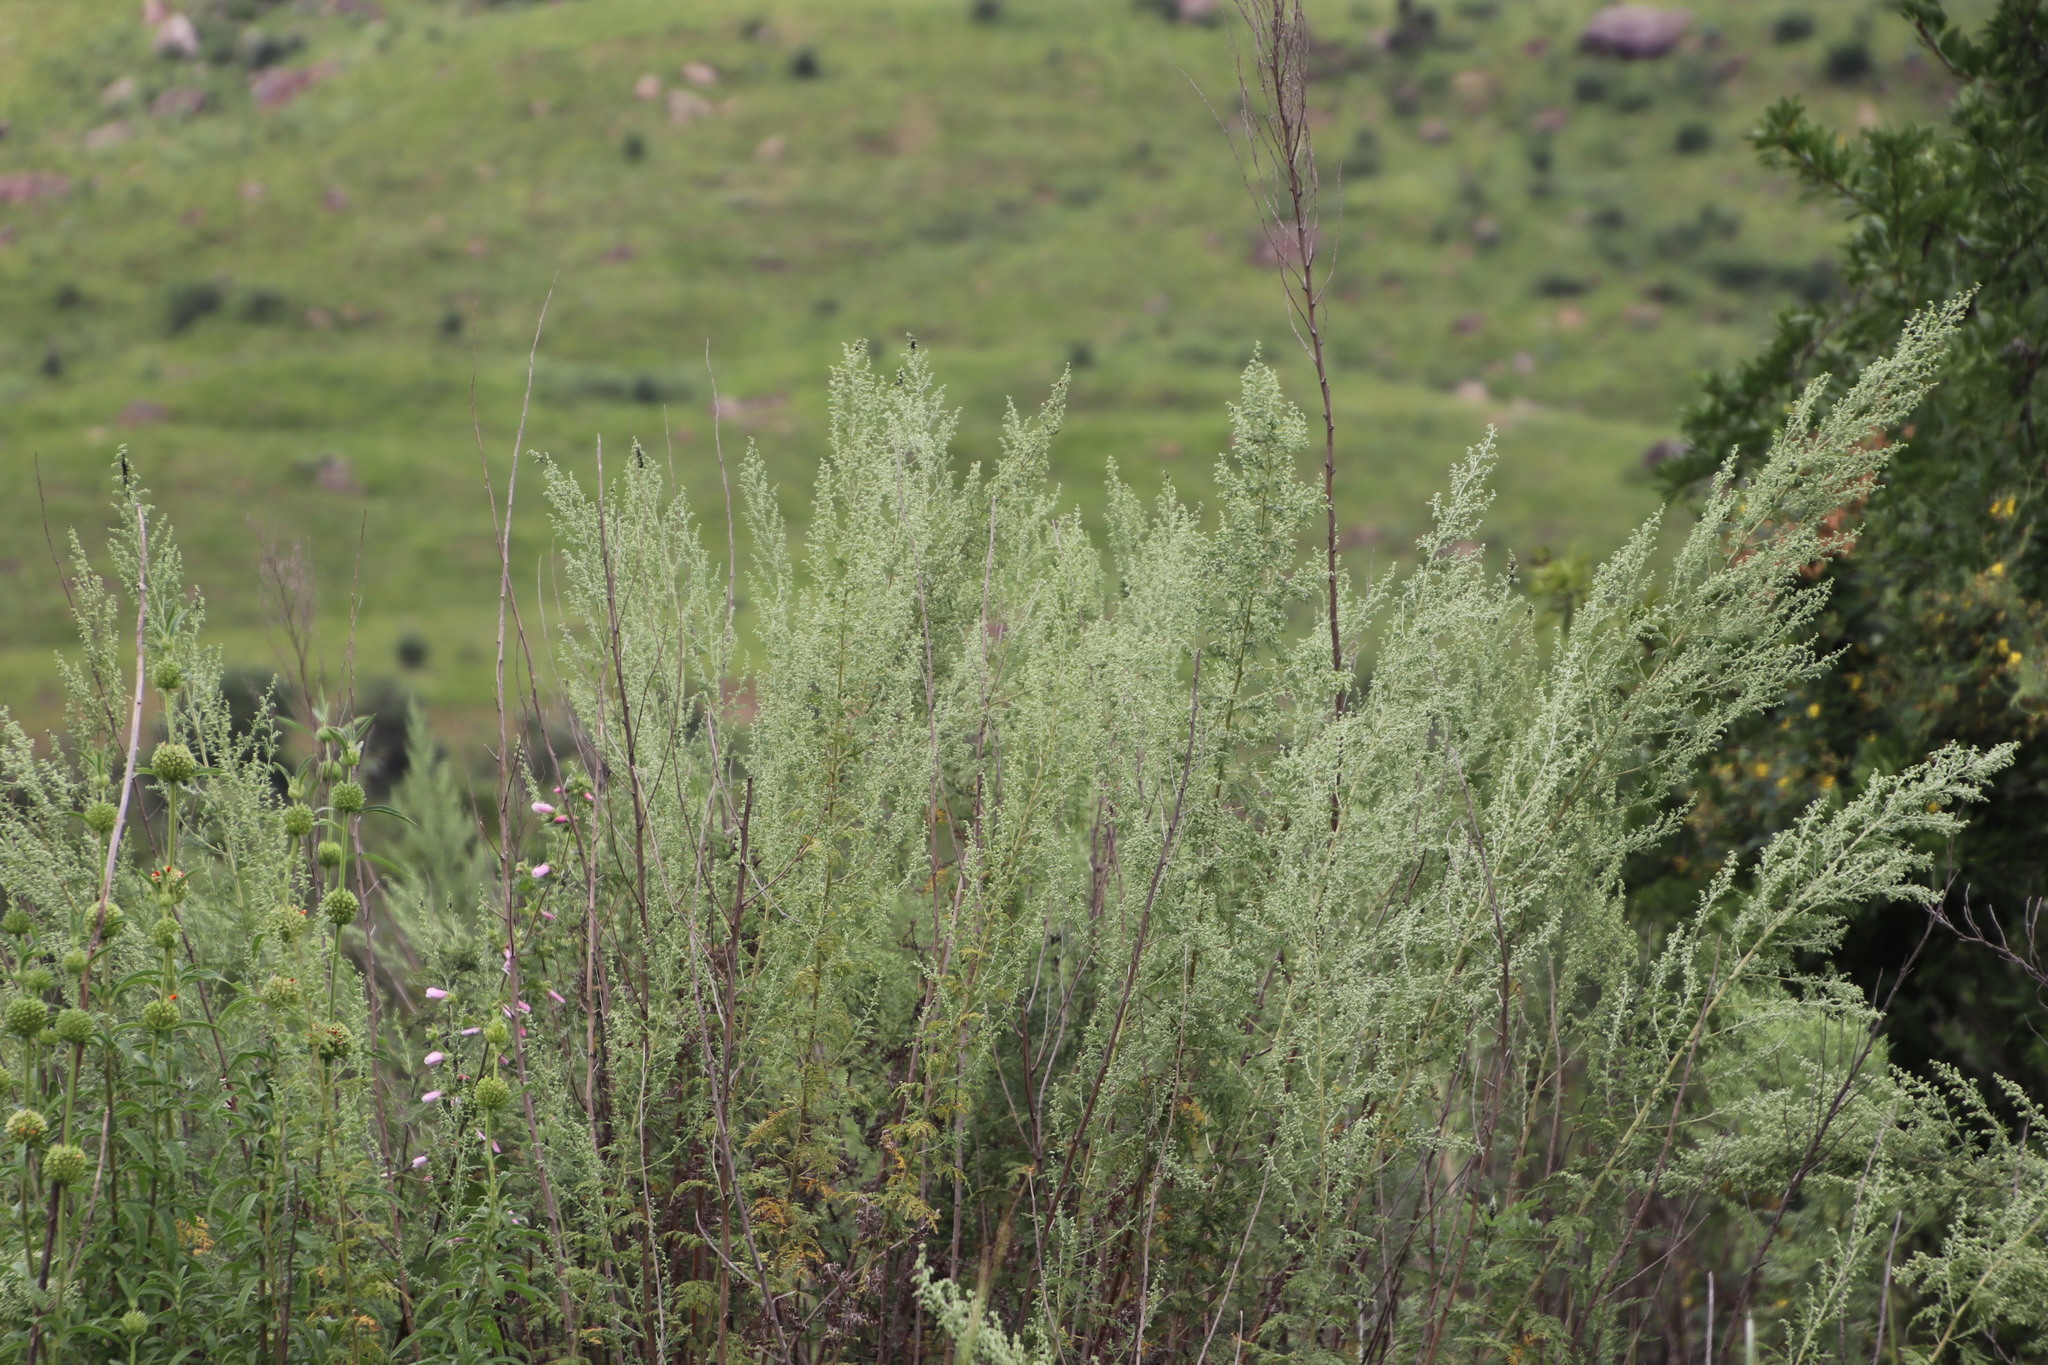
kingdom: Plantae
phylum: Tracheophyta
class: Magnoliopsida
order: Asterales
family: Asteraceae
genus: Artemisia
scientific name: Artemisia afra
